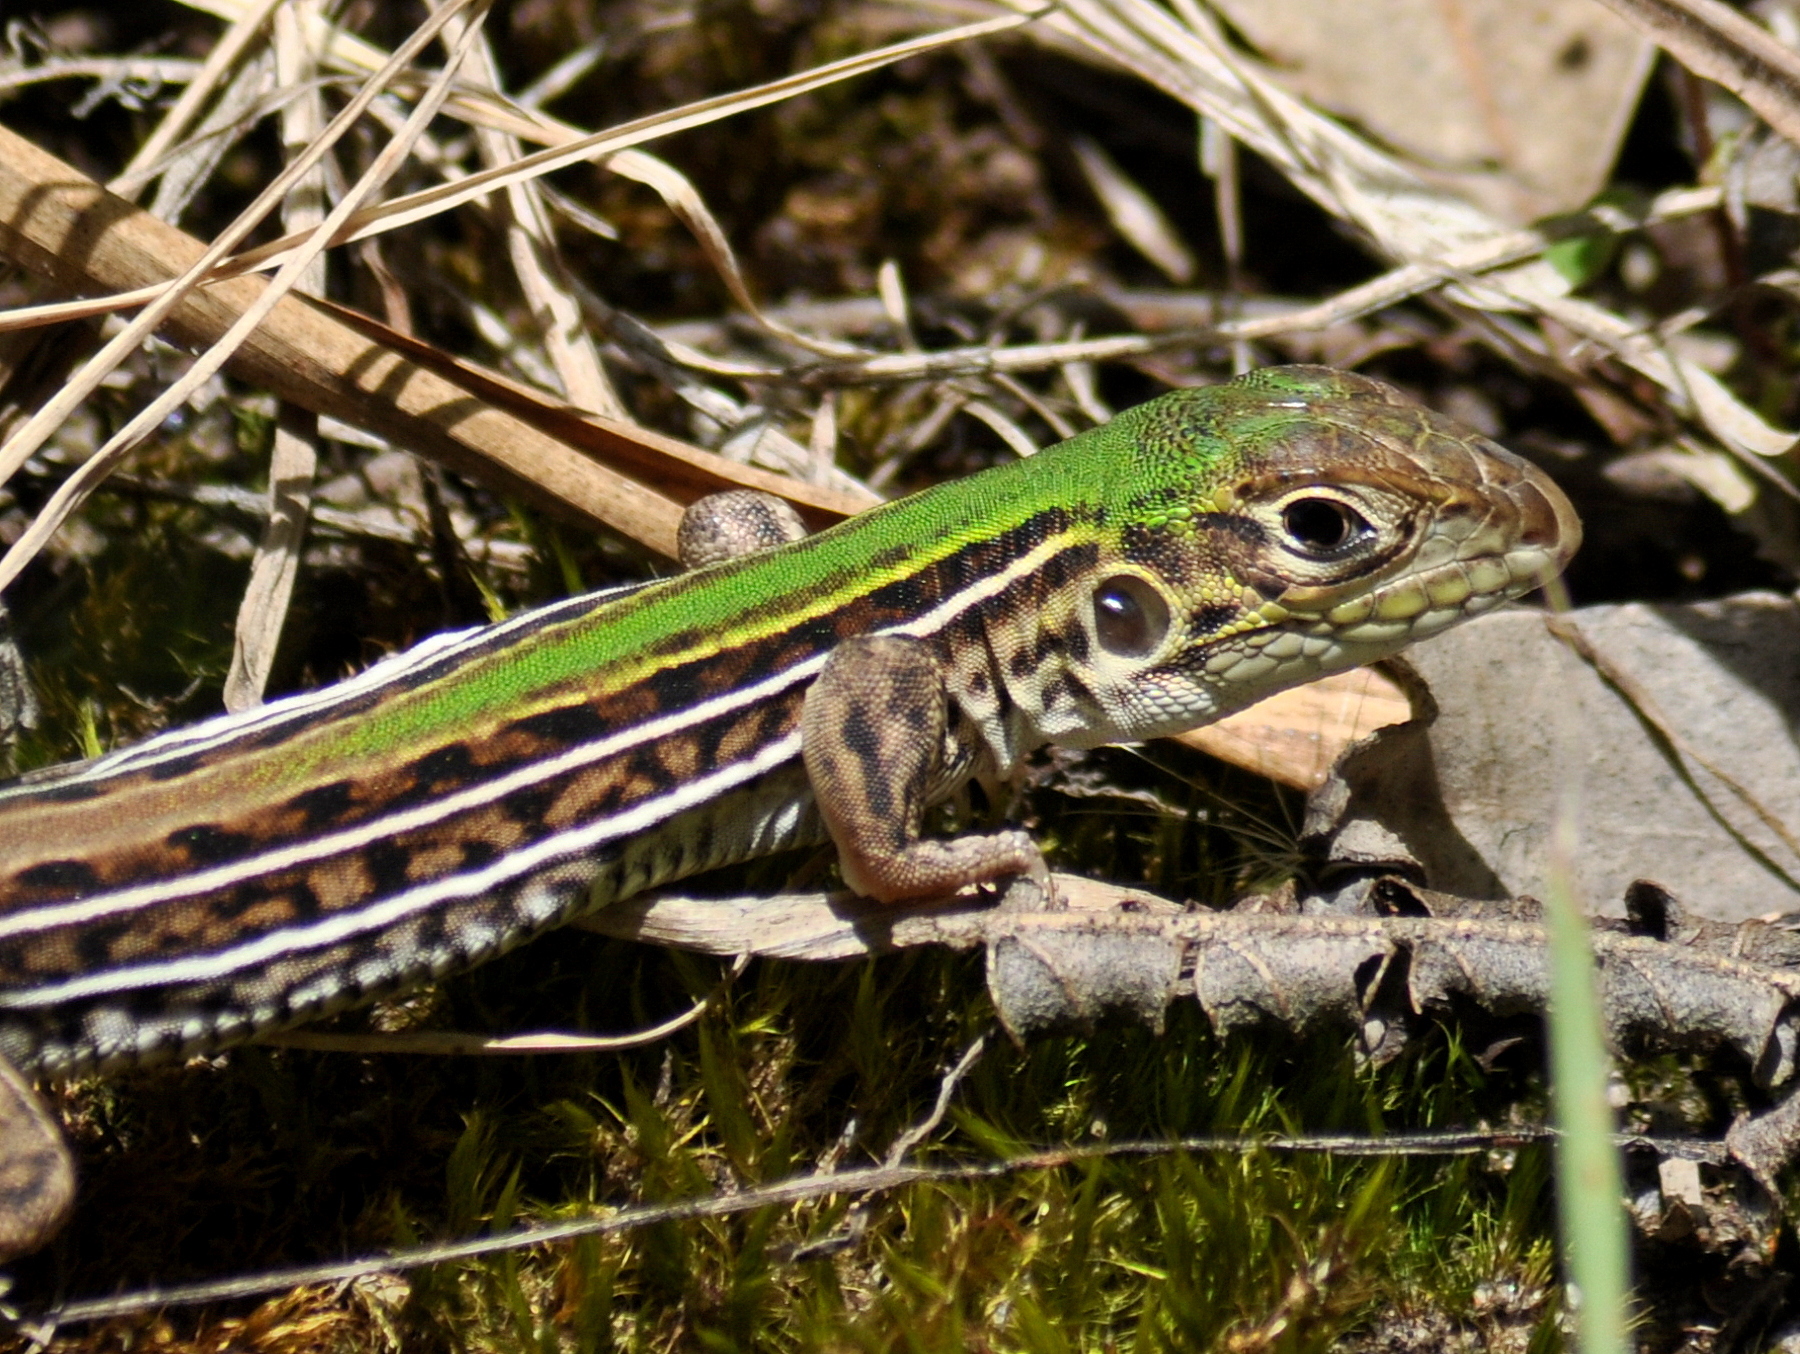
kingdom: Animalia
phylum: Chordata
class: Squamata
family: Teiidae
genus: Teius
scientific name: Teius oculatus
